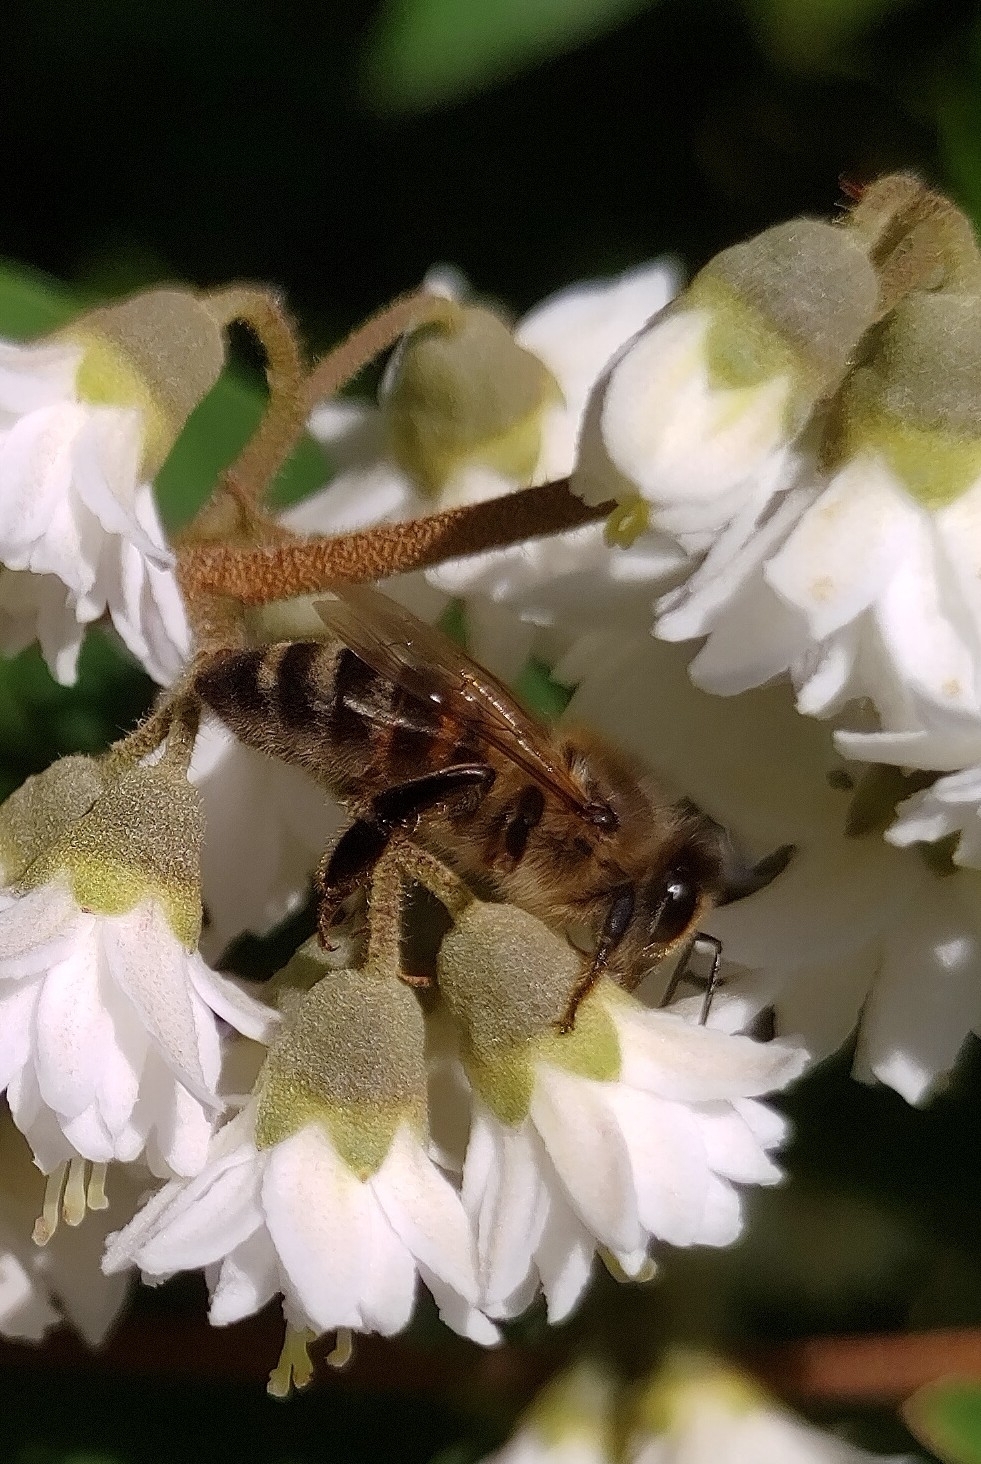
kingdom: Animalia
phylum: Arthropoda
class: Insecta
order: Hymenoptera
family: Apidae
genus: Apis
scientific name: Apis mellifera
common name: Honey bee
